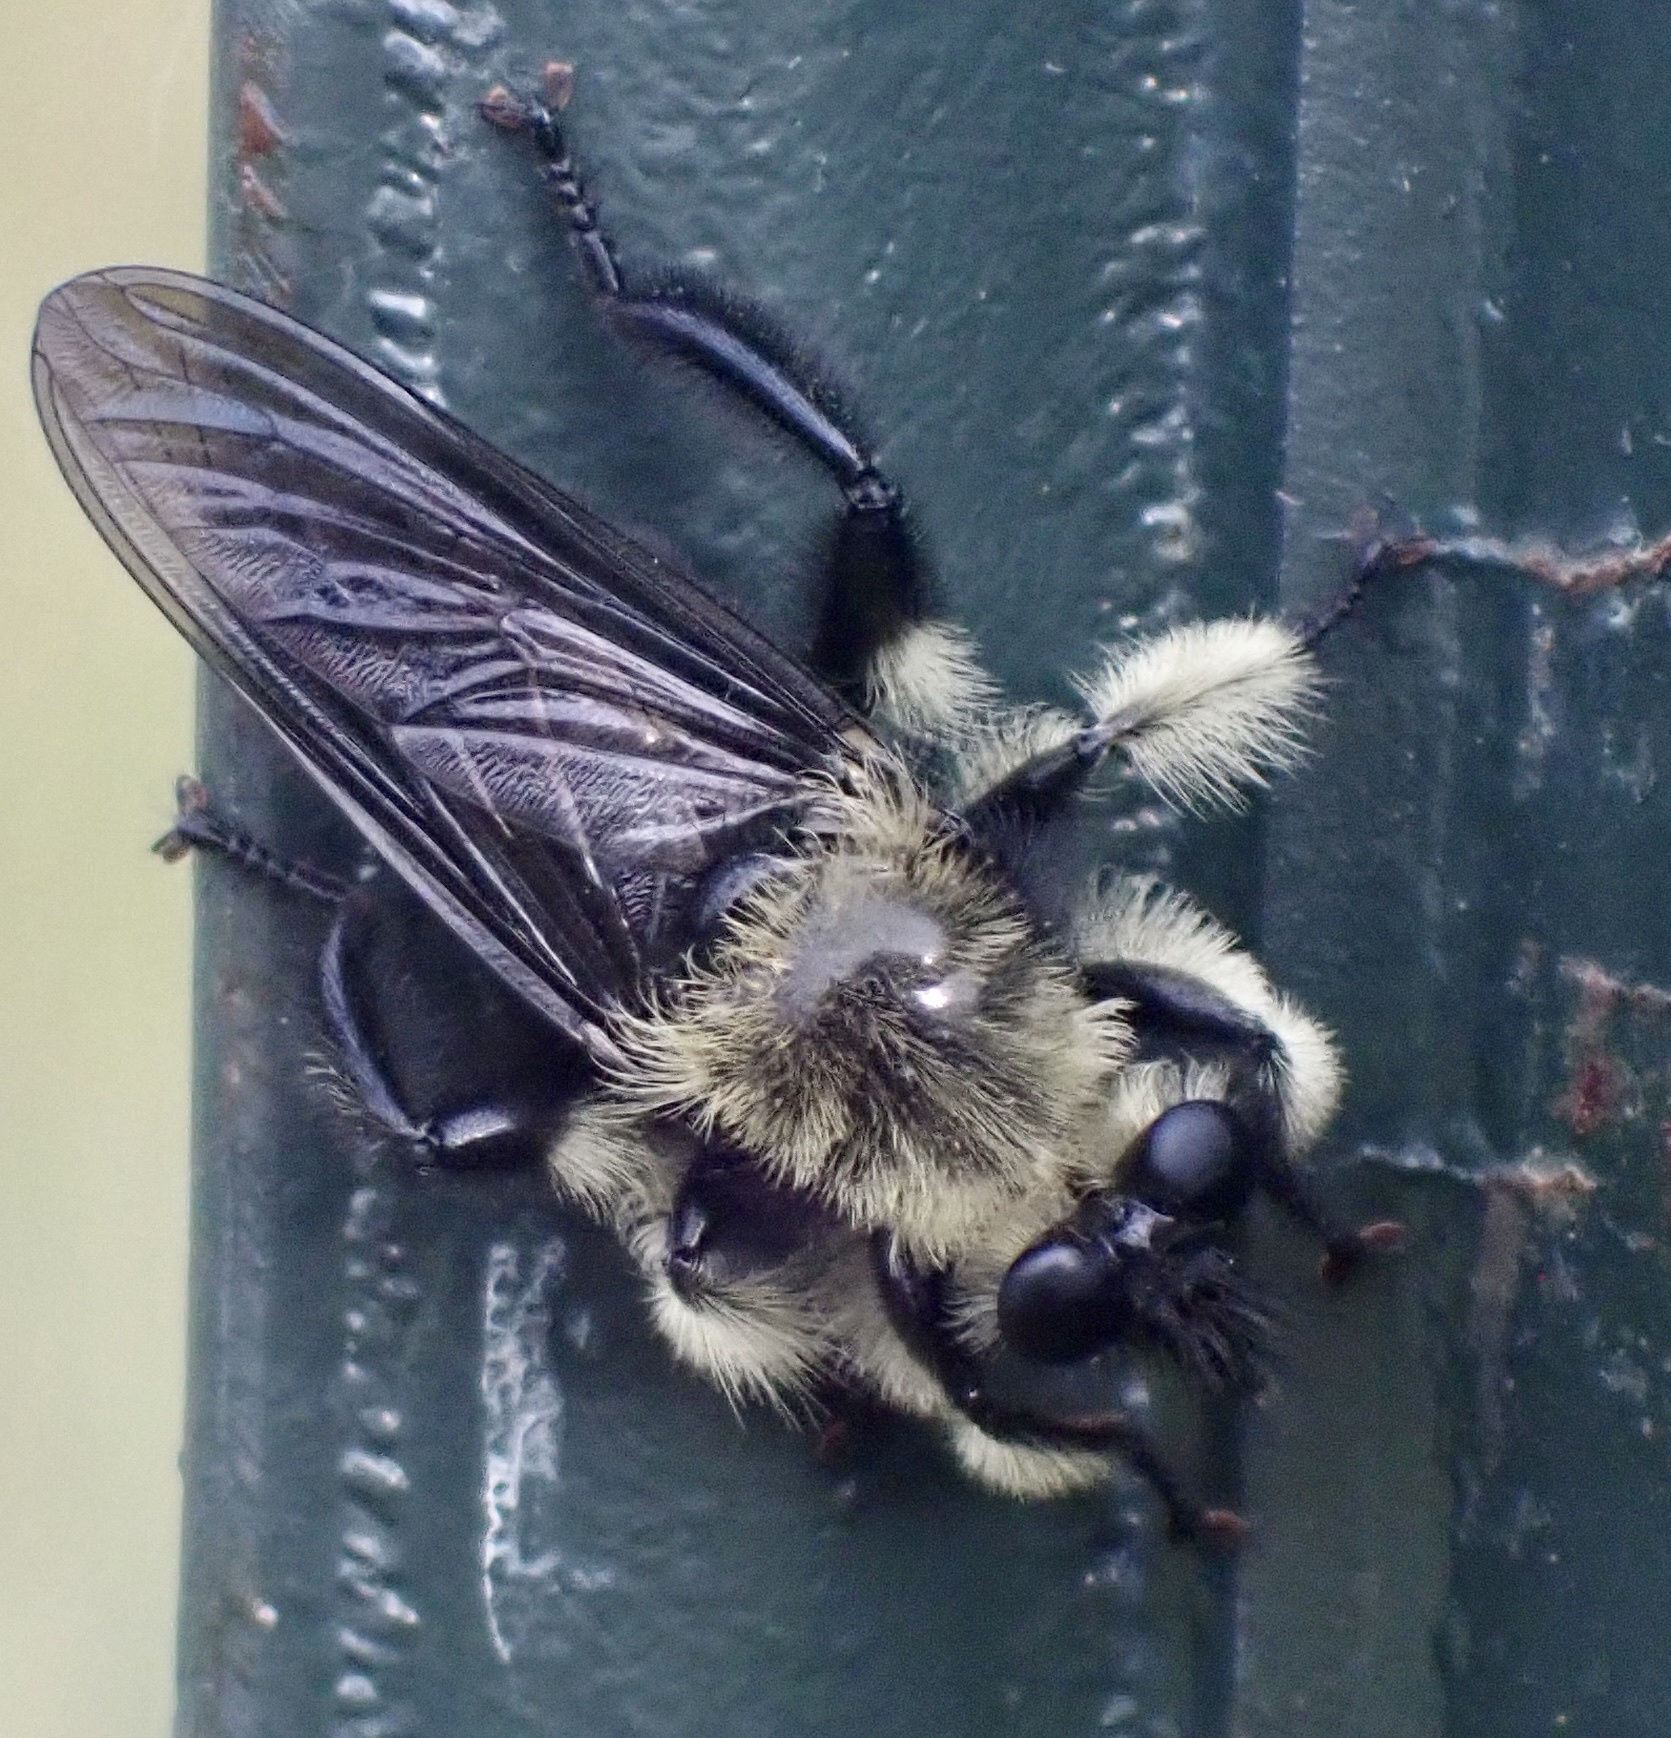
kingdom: Animalia
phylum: Arthropoda
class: Insecta
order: Diptera
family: Asilidae
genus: Laphria
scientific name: Laphria affinis
